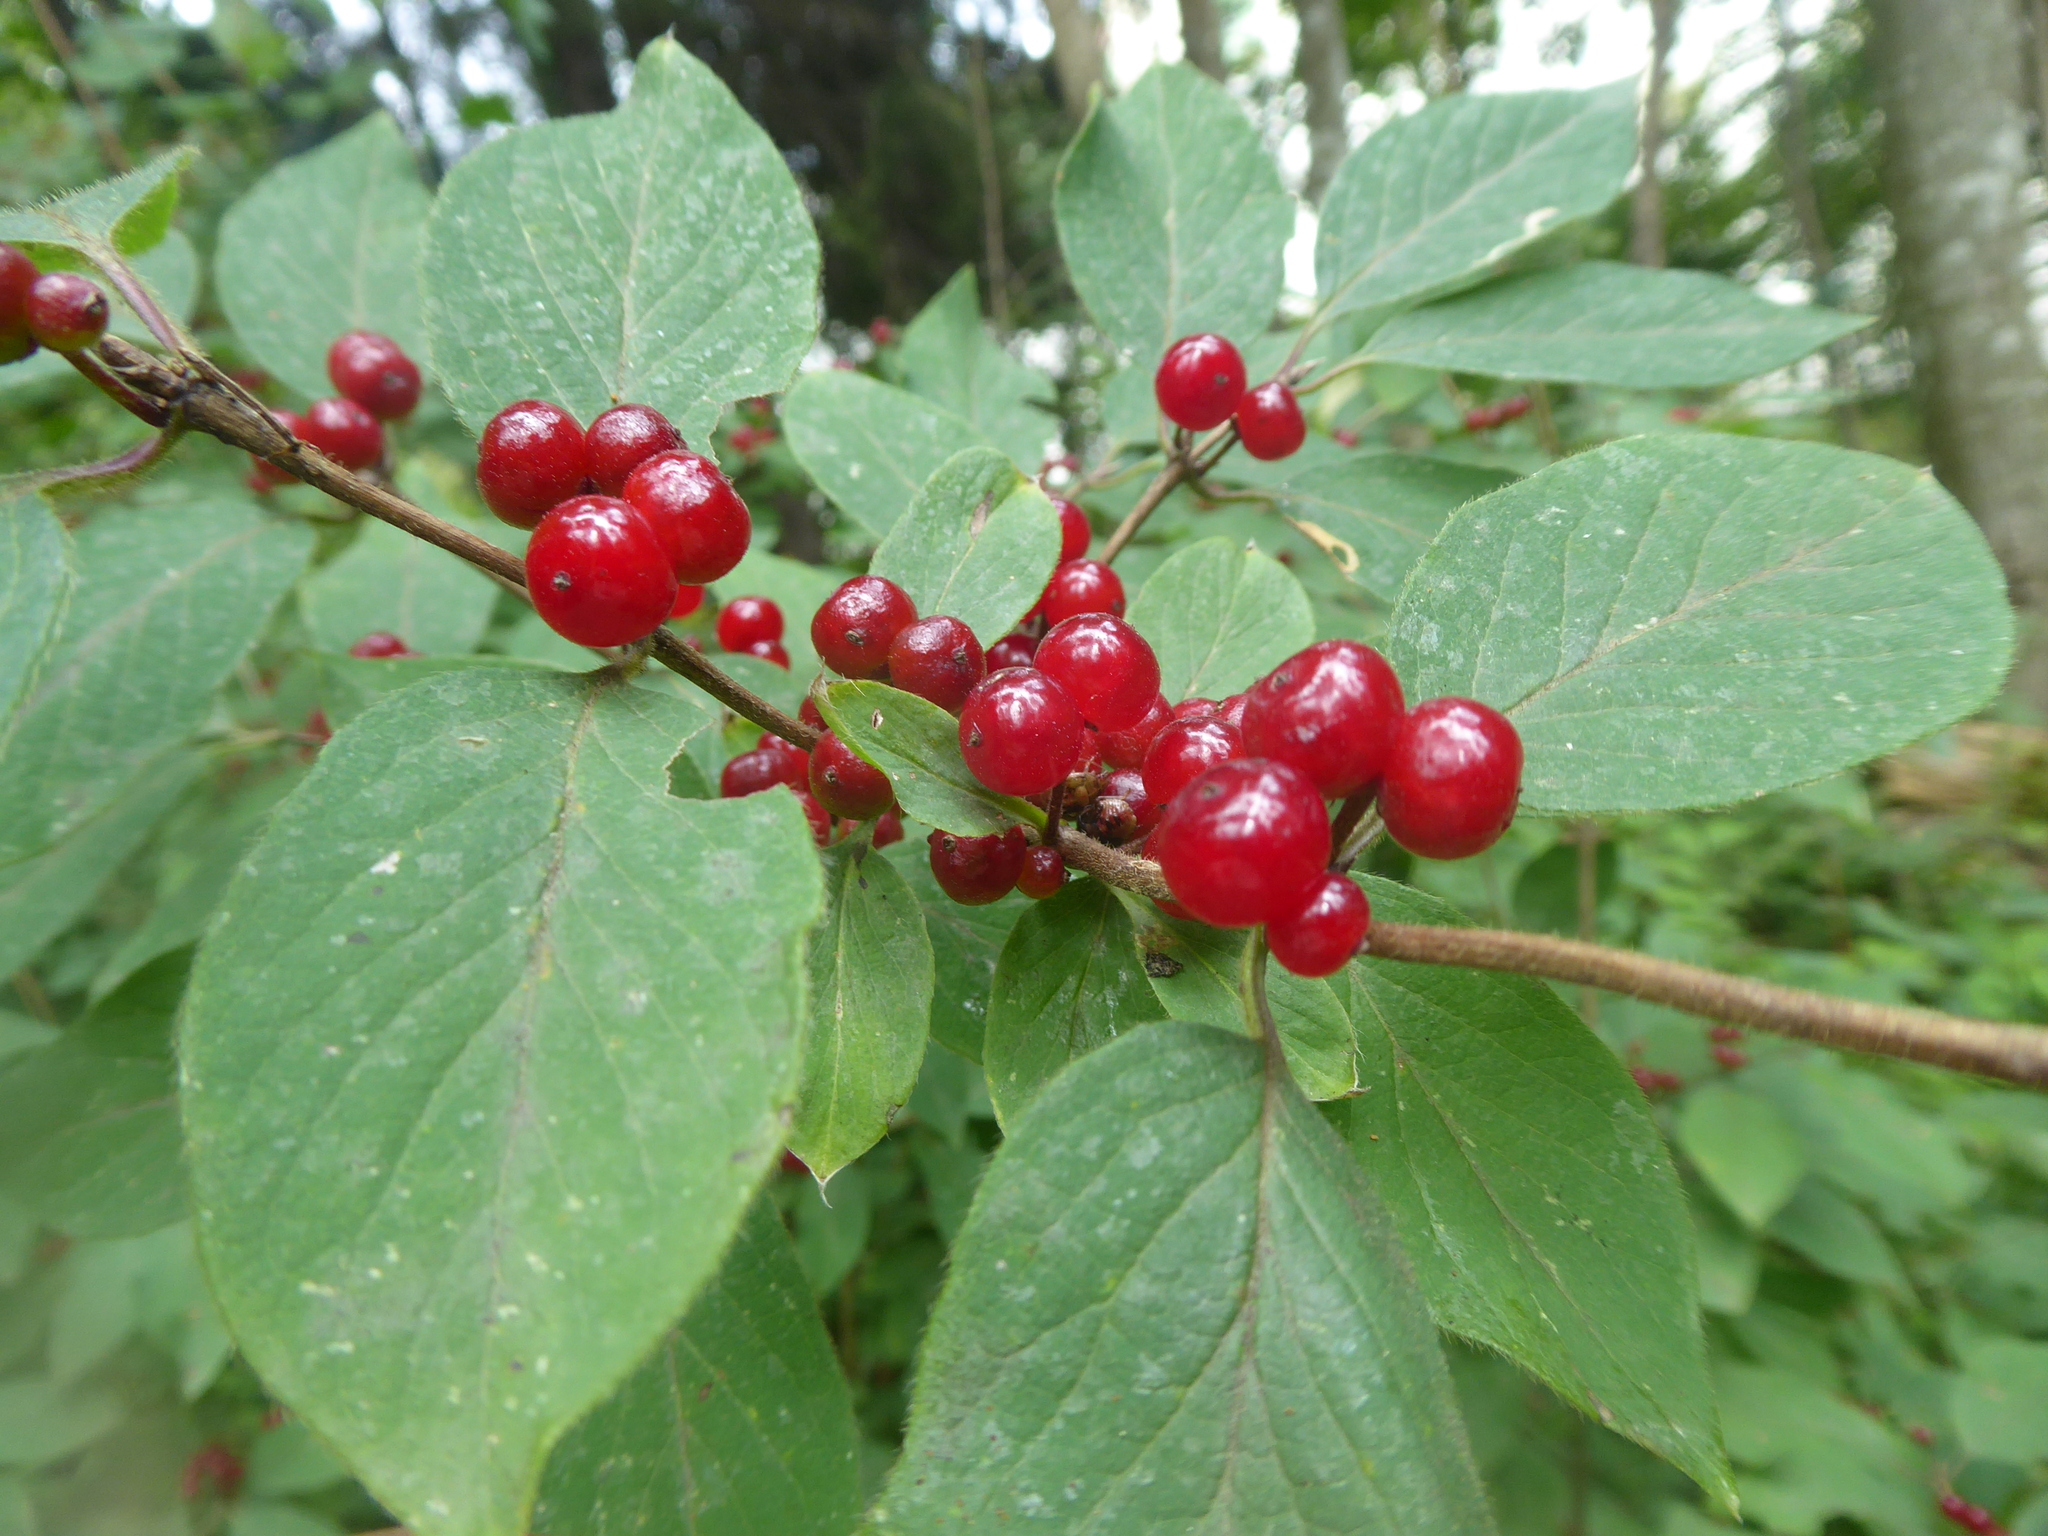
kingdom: Plantae
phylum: Tracheophyta
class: Magnoliopsida
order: Dipsacales
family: Caprifoliaceae
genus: Lonicera
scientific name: Lonicera xylosteum
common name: Fly honeysuckle
